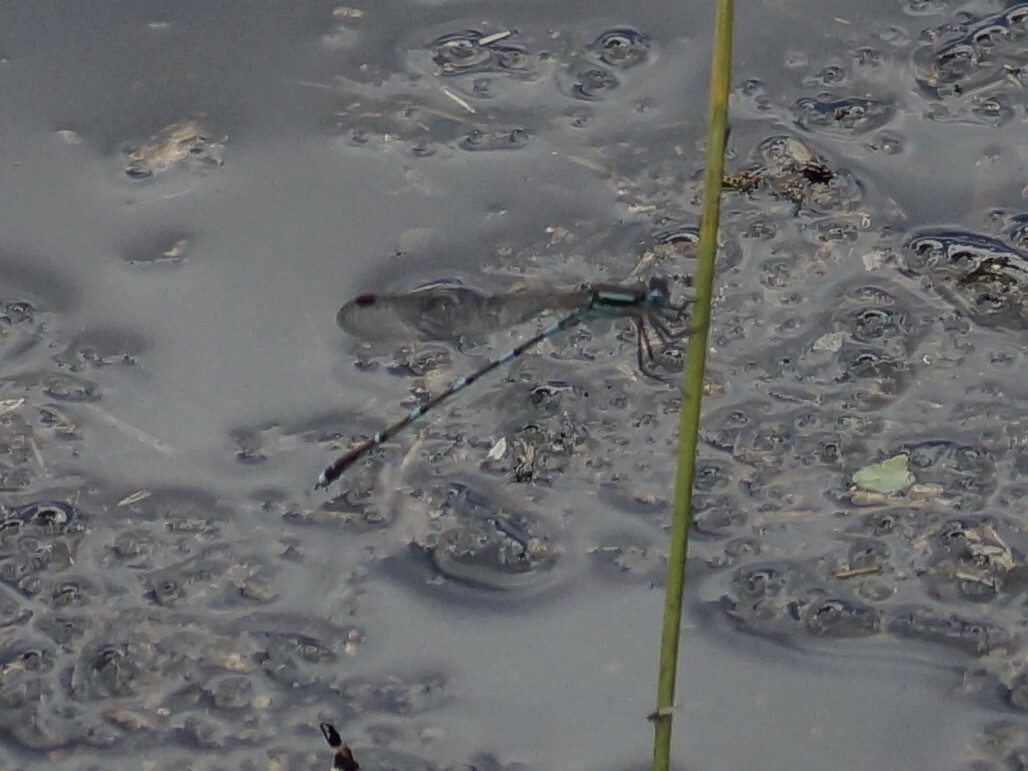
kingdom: Animalia
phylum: Arthropoda
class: Insecta
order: Odonata
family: Lestidae
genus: Austrolestes
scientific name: Austrolestes leda
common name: Wandering ringtail
